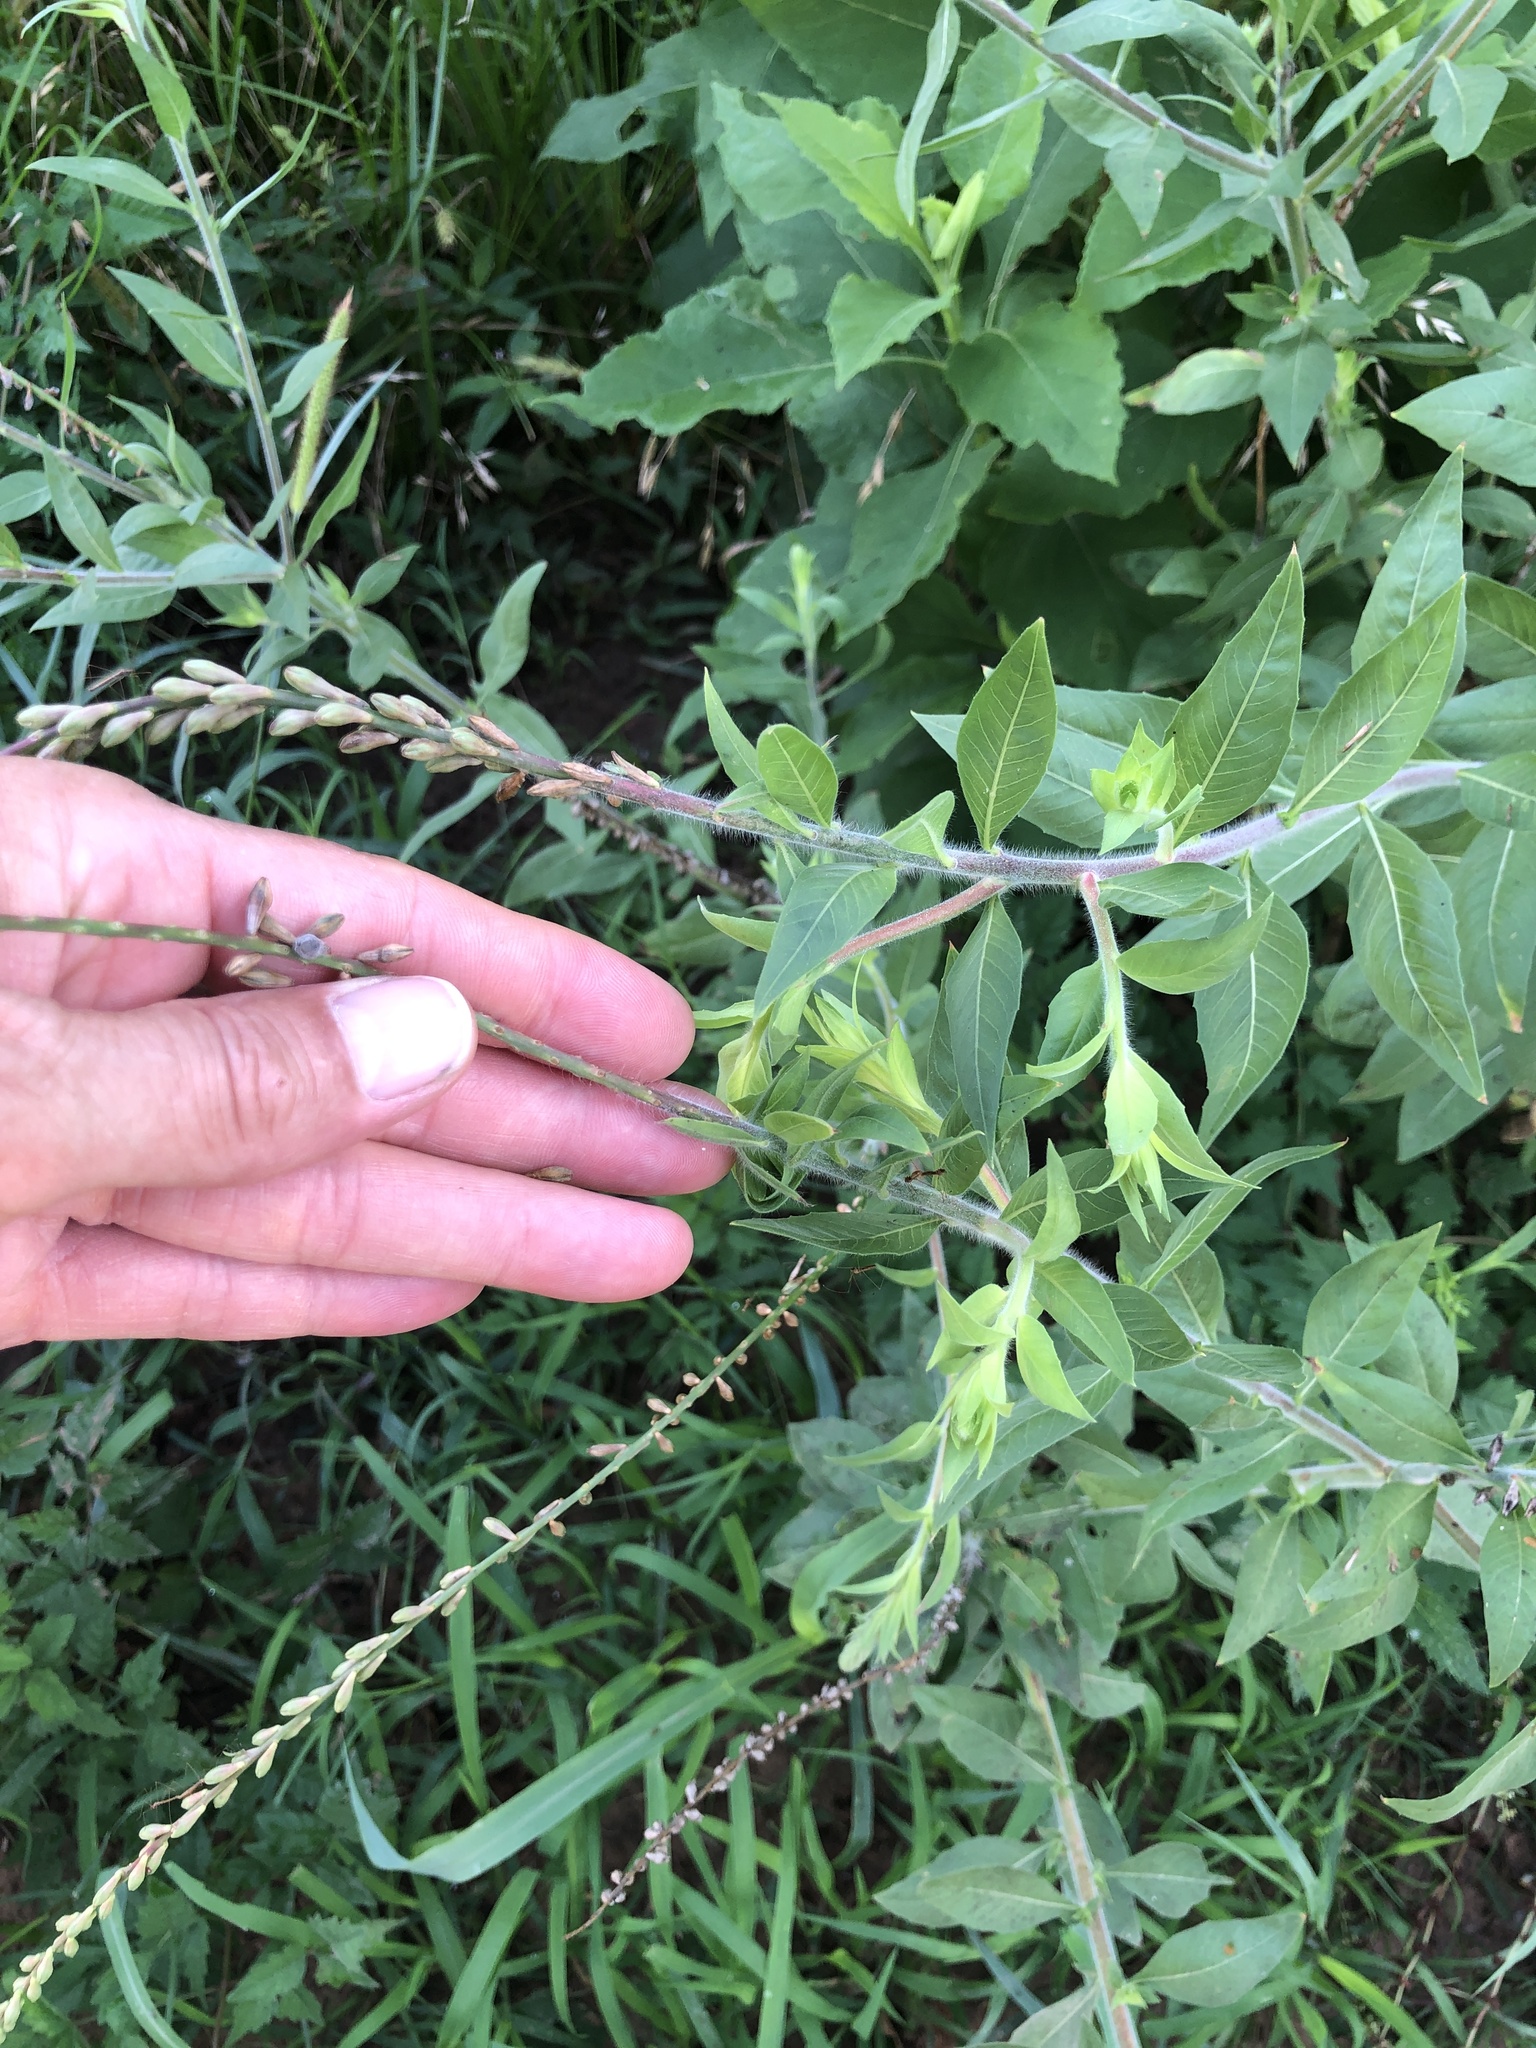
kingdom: Plantae
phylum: Tracheophyta
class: Magnoliopsida
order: Myrtales
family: Onagraceae
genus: Oenothera
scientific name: Oenothera curtiflora
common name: Velvetweed
